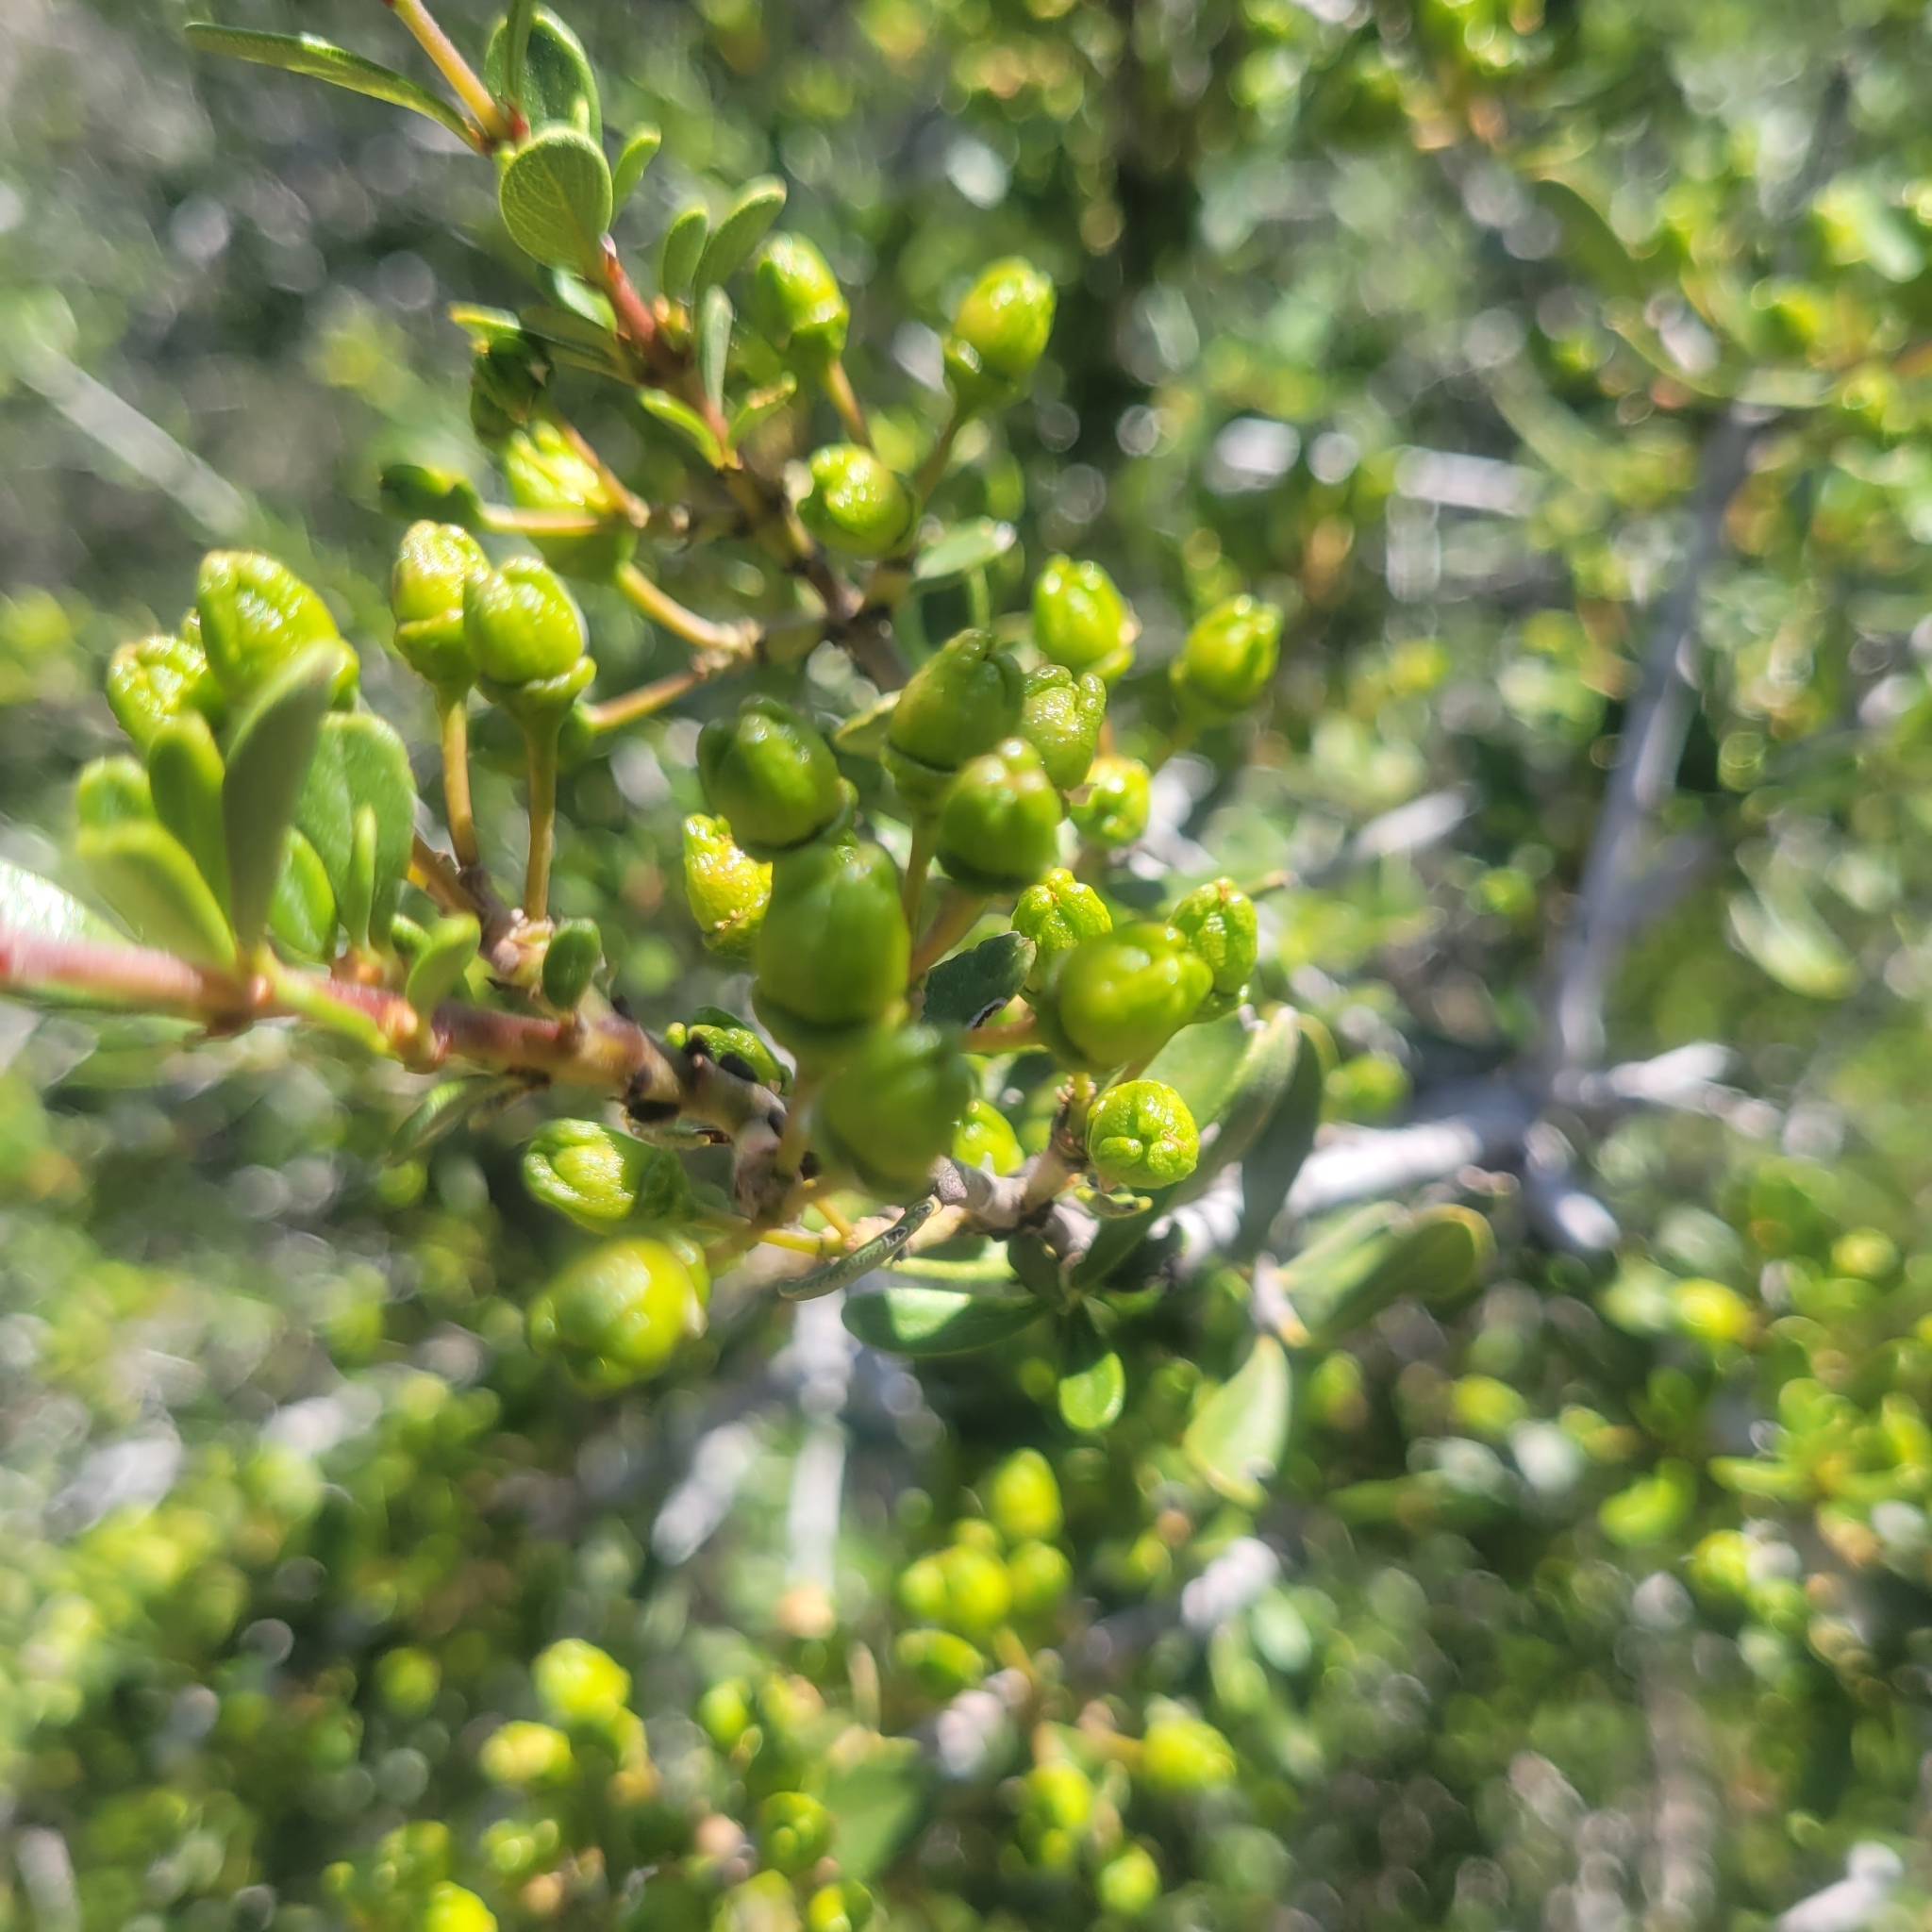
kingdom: Plantae
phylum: Tracheophyta
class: Magnoliopsida
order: Rosales
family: Rhamnaceae
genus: Ceanothus
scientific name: Ceanothus cuneatus
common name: Cuneate ceanothus
